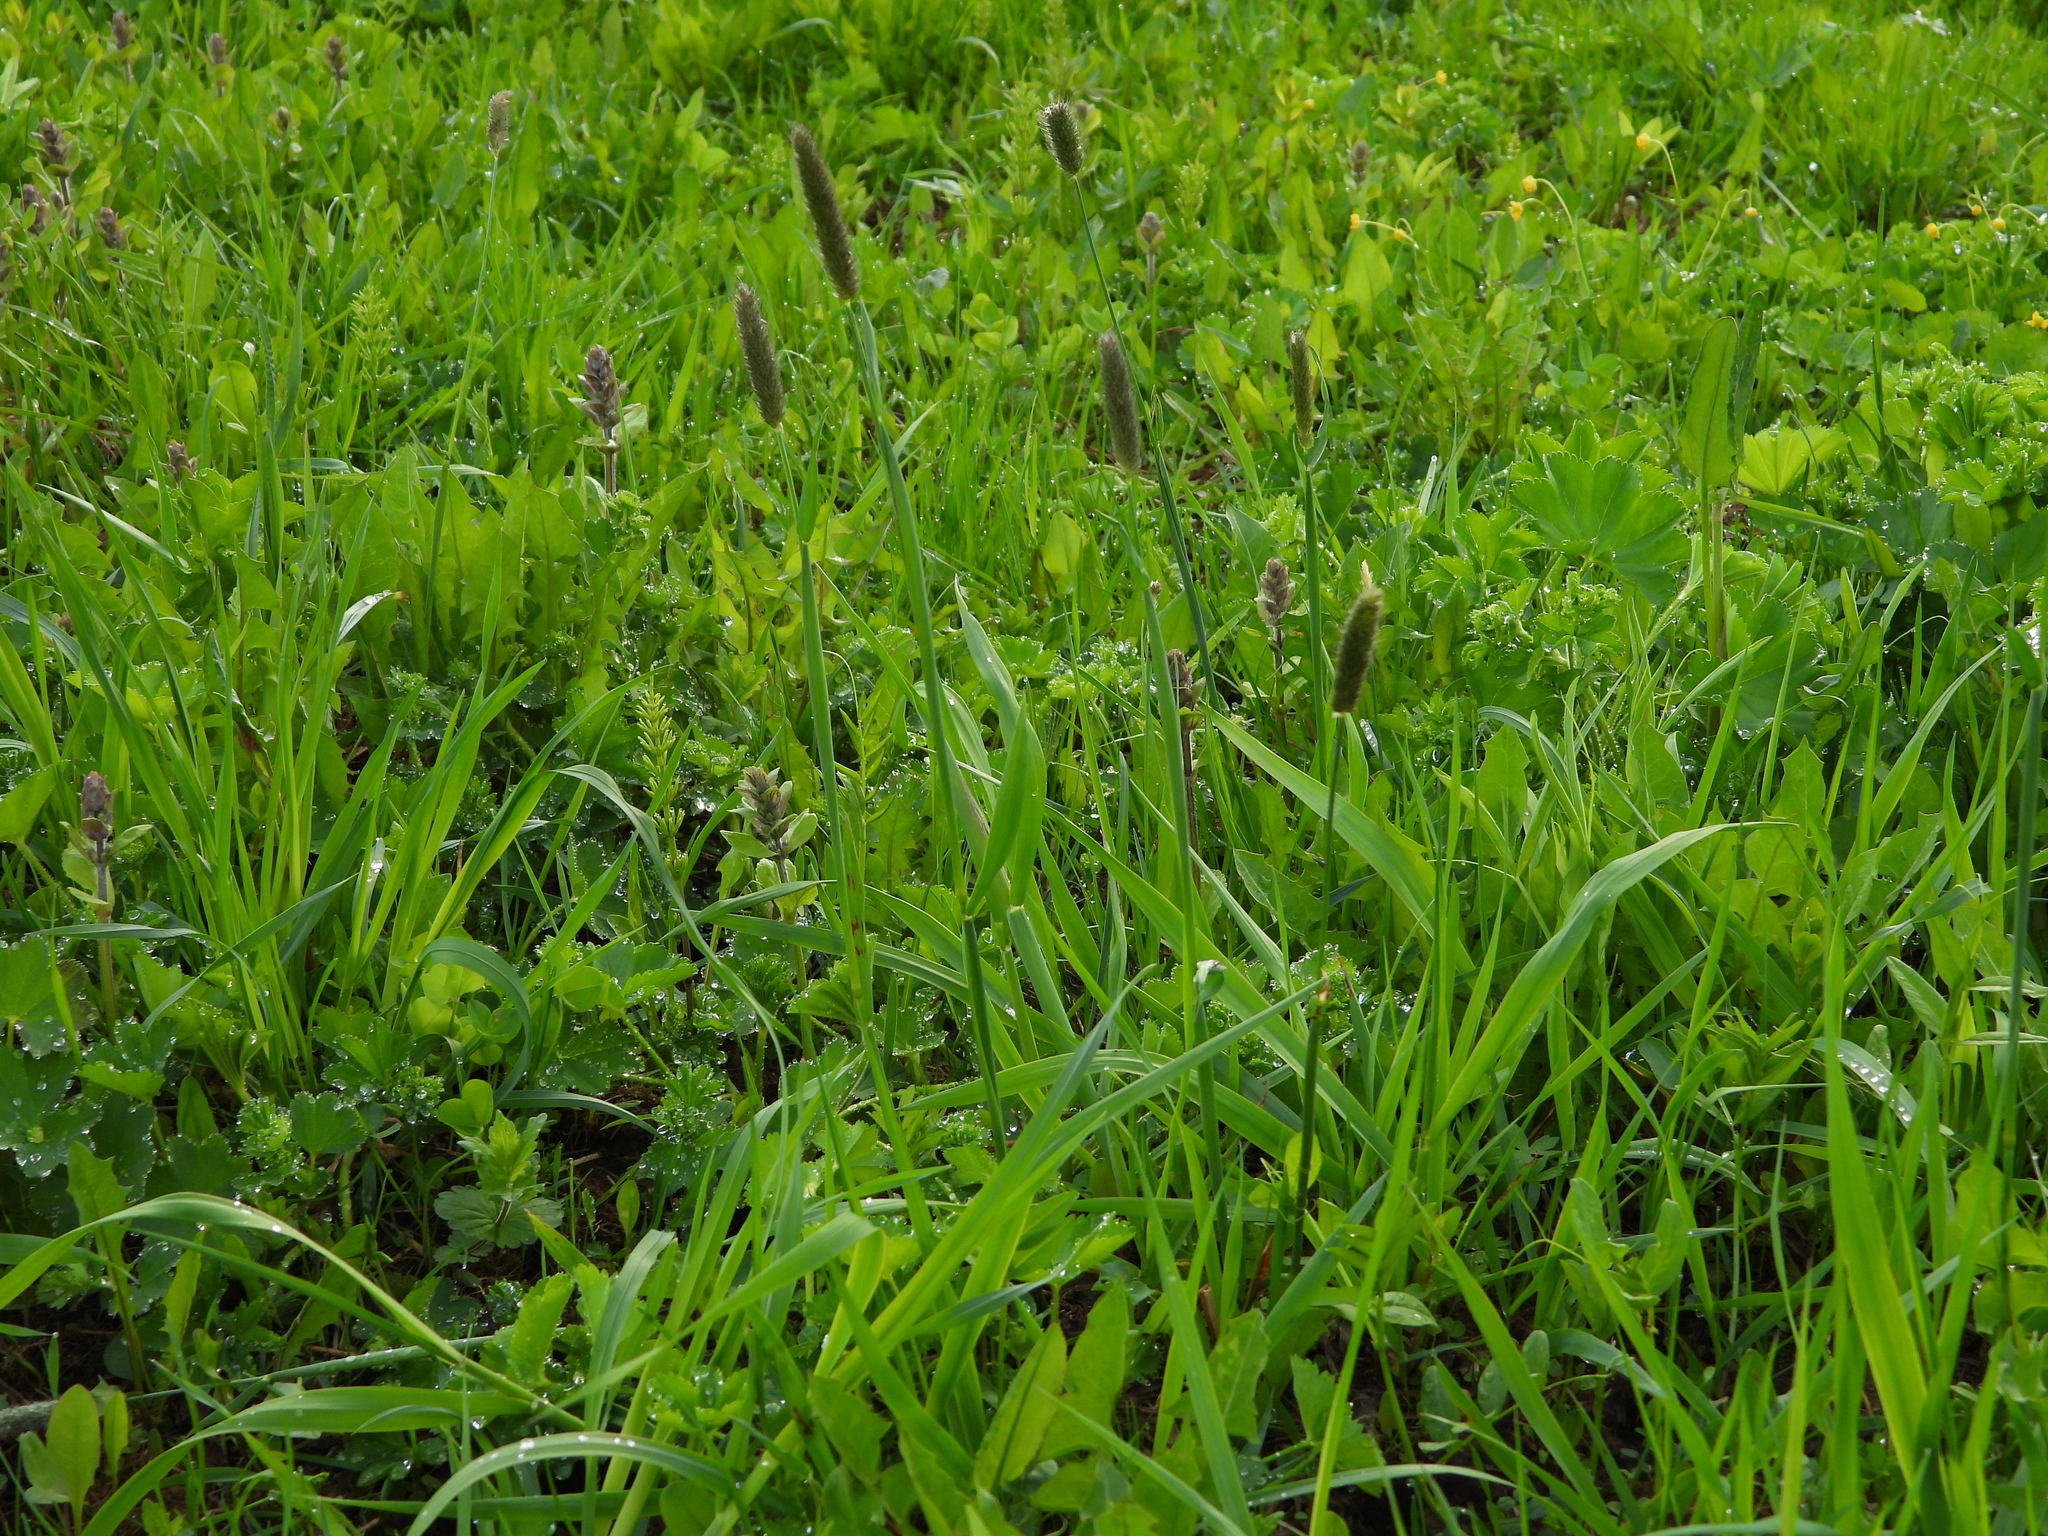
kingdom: Plantae
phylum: Tracheophyta
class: Liliopsida
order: Poales
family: Poaceae
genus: Alopecurus
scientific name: Alopecurus pratensis
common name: Meadow foxtail
